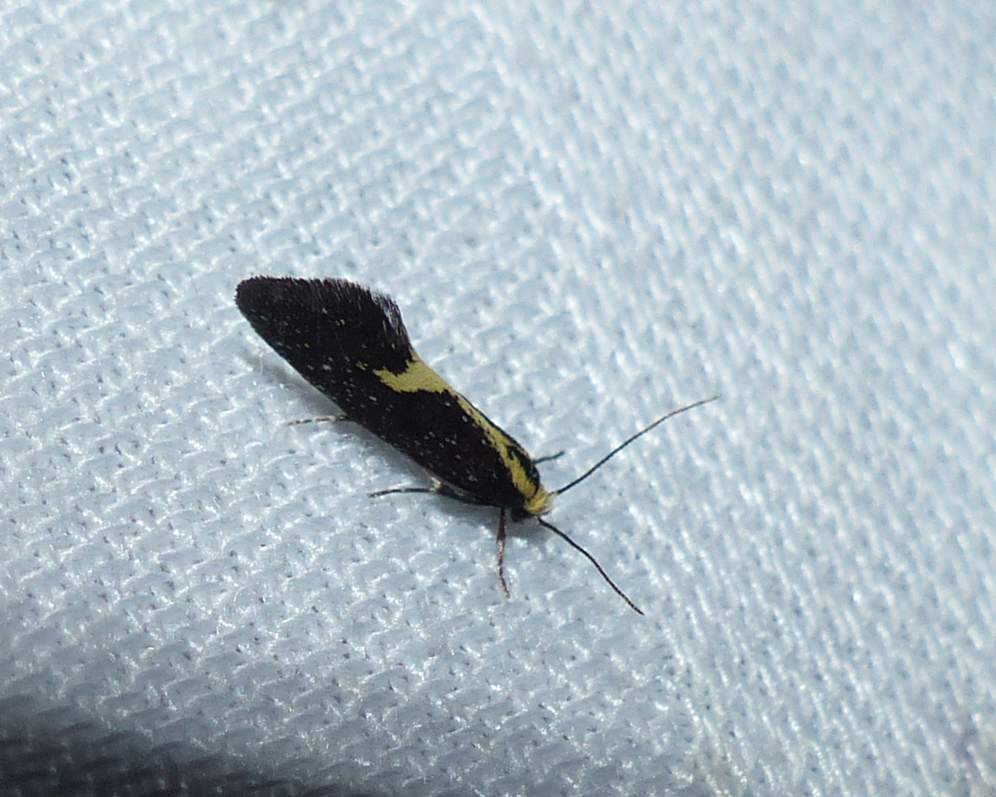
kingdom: Animalia
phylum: Arthropoda
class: Insecta
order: Lepidoptera
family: Oecophoridae
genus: Polix
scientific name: Polix coloradella
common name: Skunk moth
